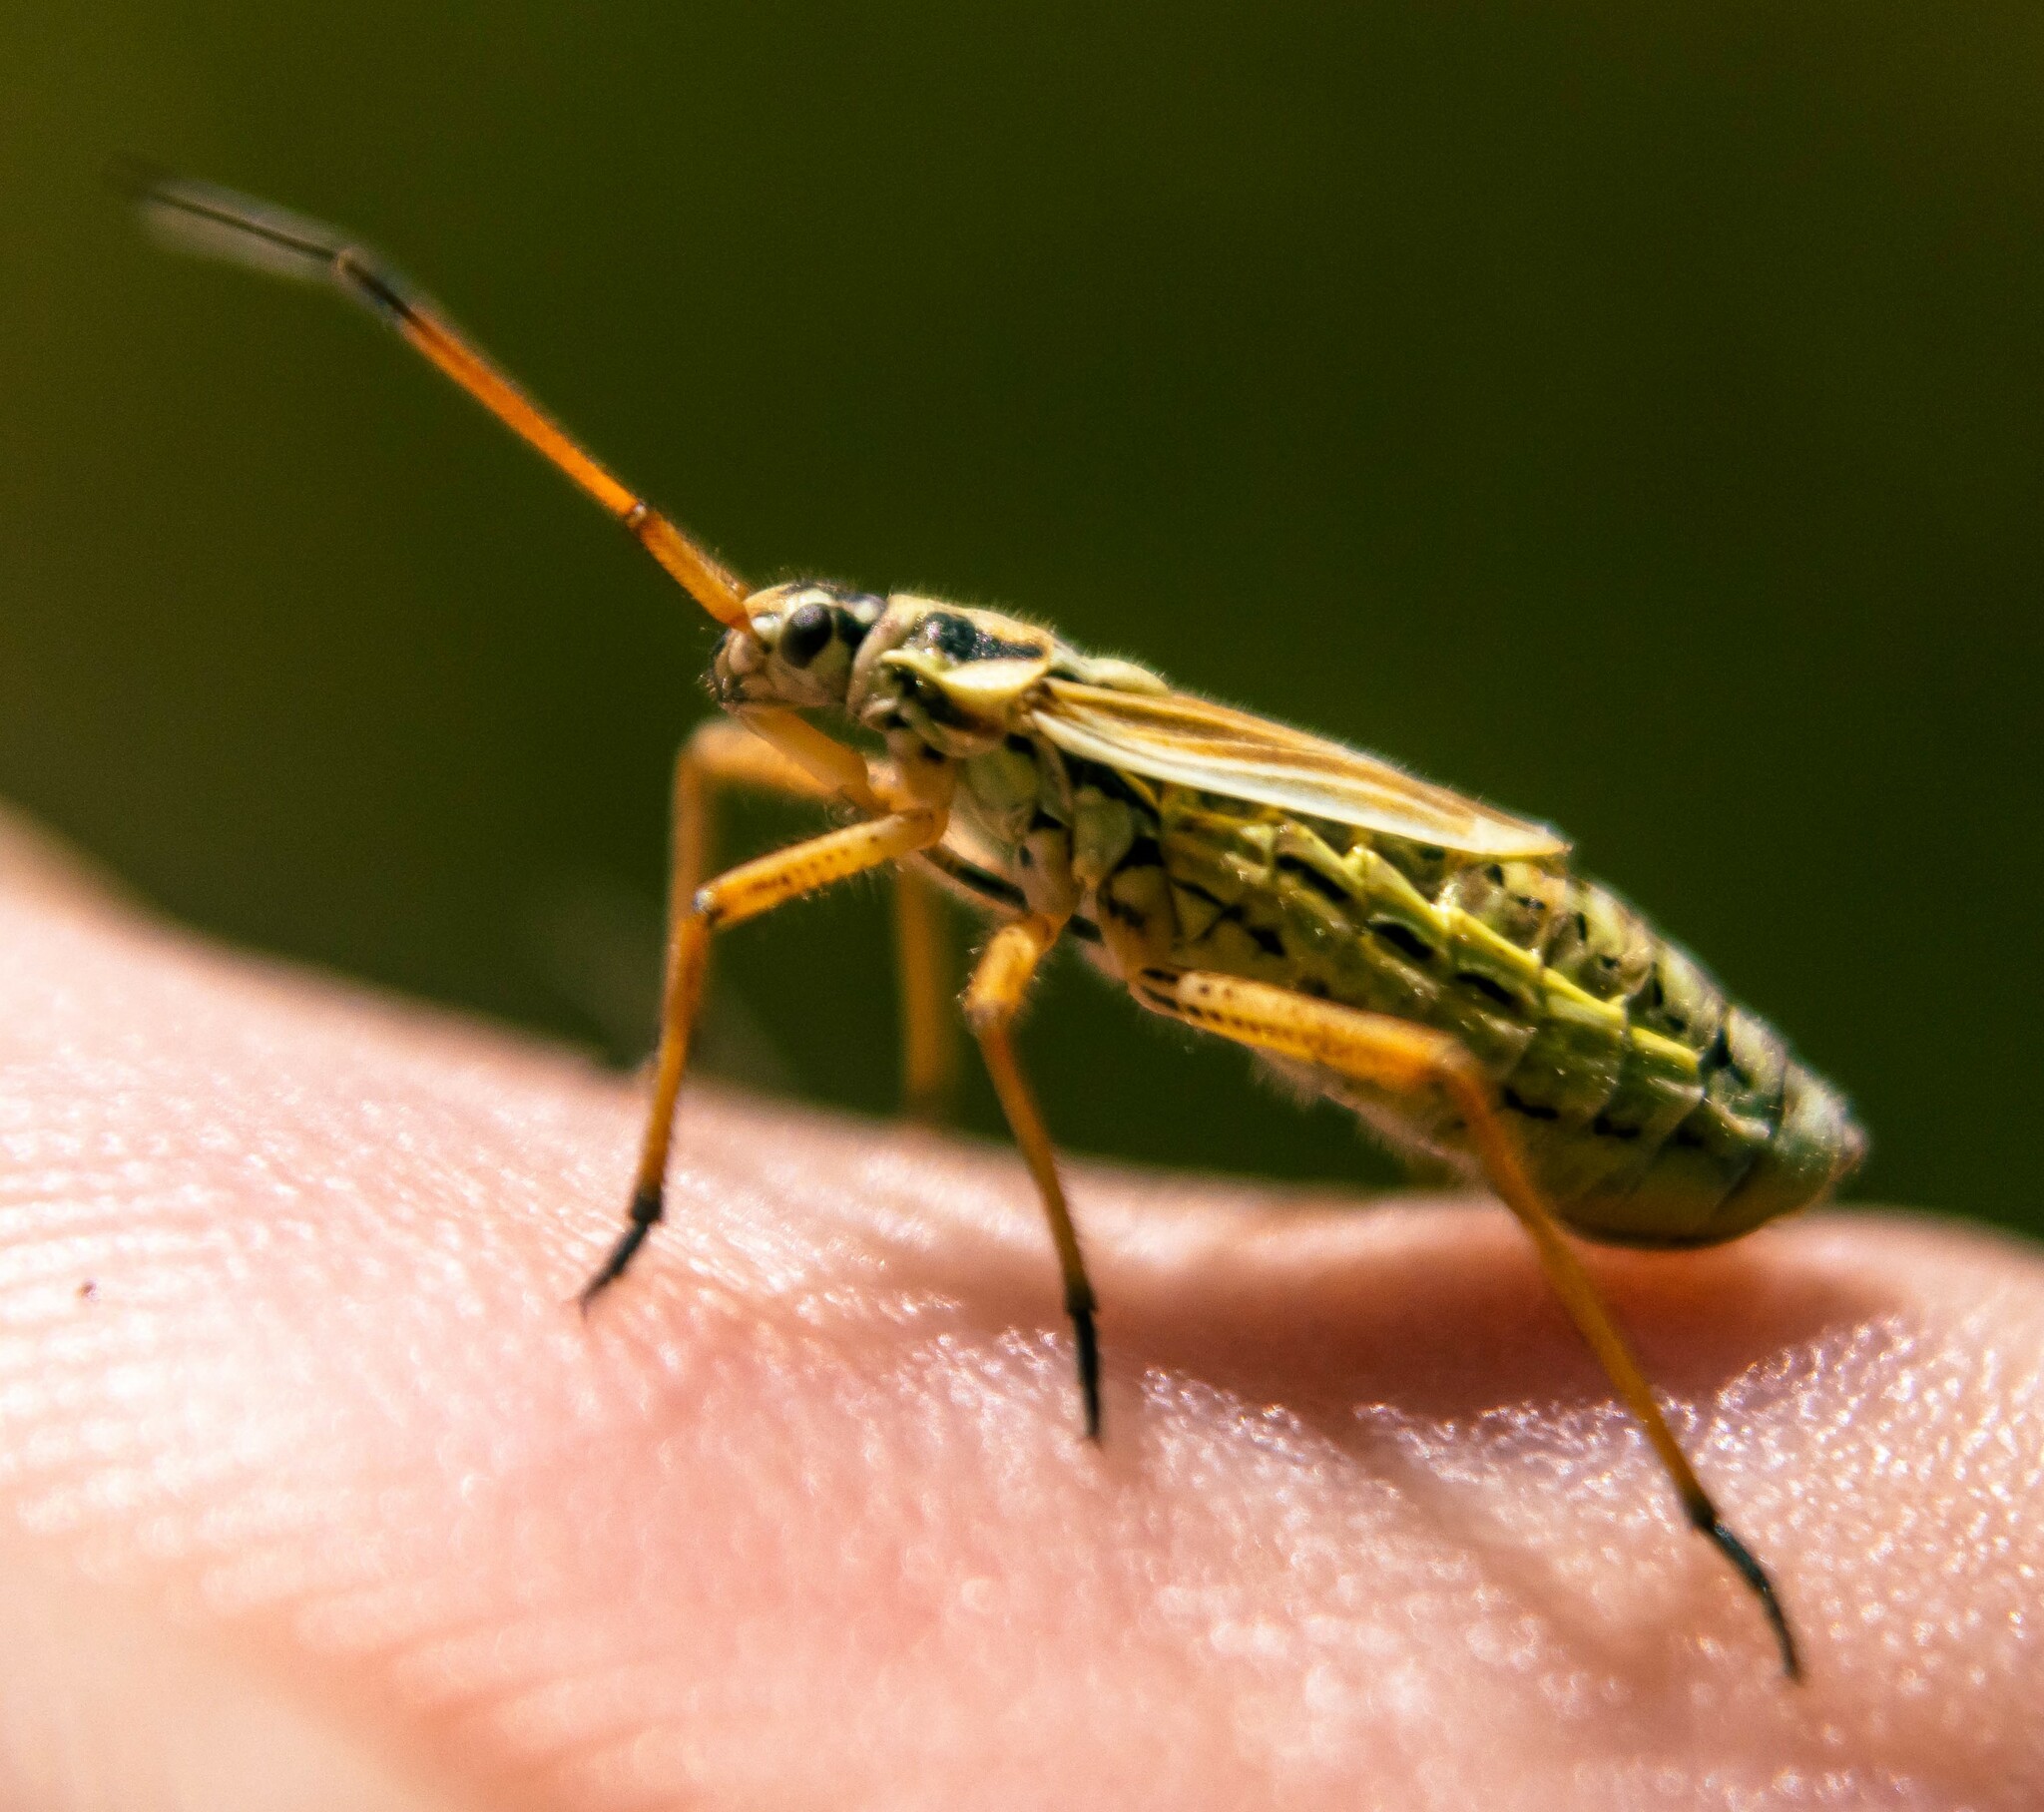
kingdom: Animalia
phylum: Arthropoda
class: Insecta
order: Hemiptera
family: Miridae
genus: Leptopterna
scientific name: Leptopterna dolabrata
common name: Meadow plant bug
